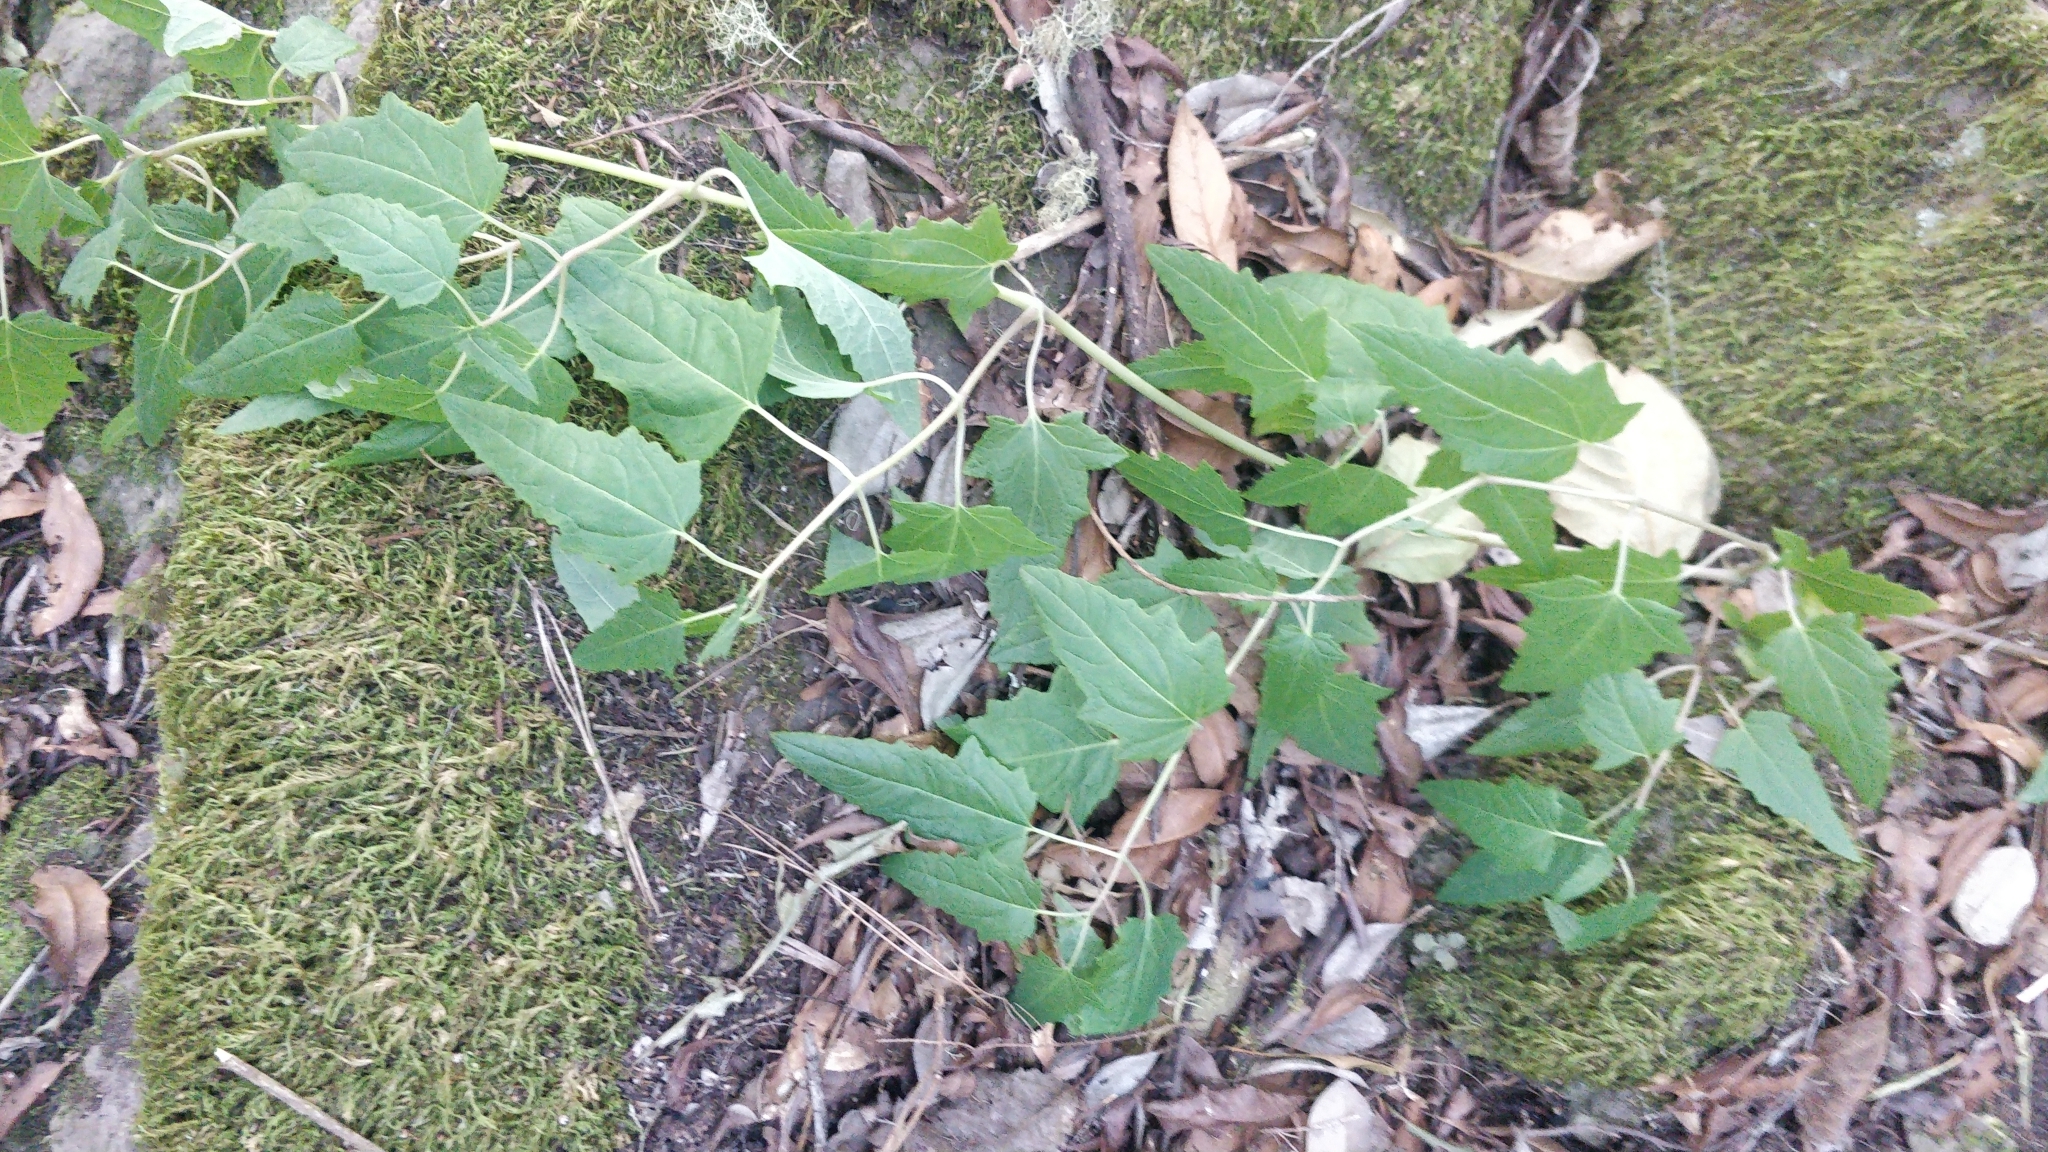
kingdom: Plantae
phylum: Tracheophyta
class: Magnoliopsida
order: Asterales
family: Campanulaceae
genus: Canarina
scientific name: Canarina canariensis
